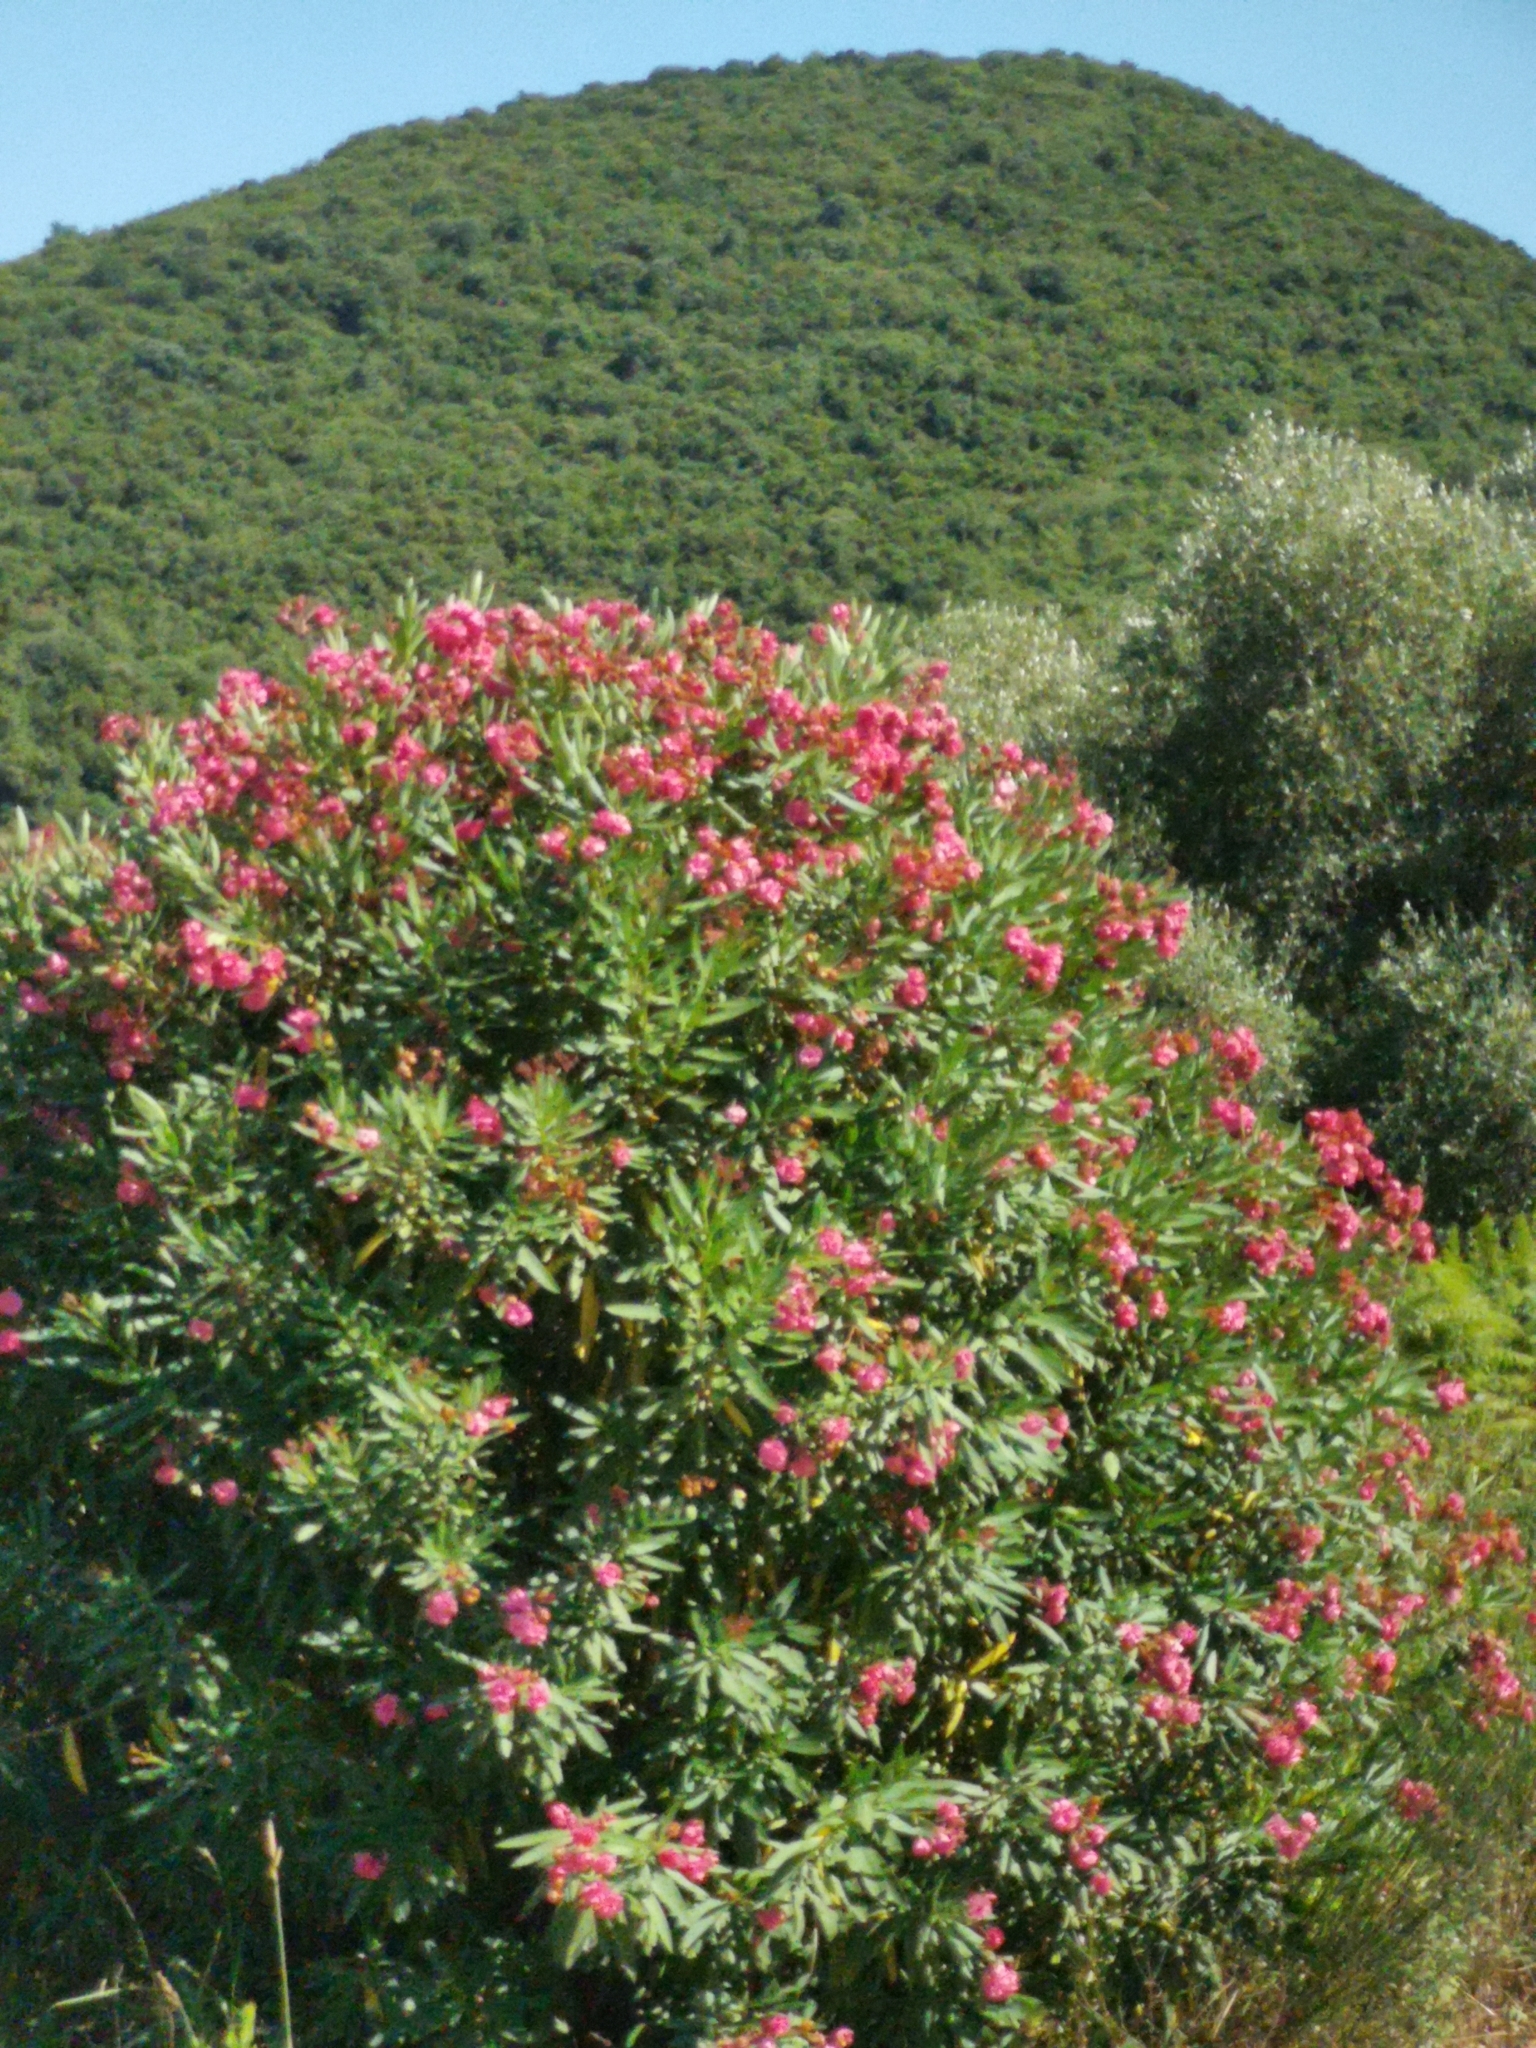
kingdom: Plantae
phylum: Tracheophyta
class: Magnoliopsida
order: Gentianales
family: Apocynaceae
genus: Nerium
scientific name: Nerium oleander
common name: Oleander
